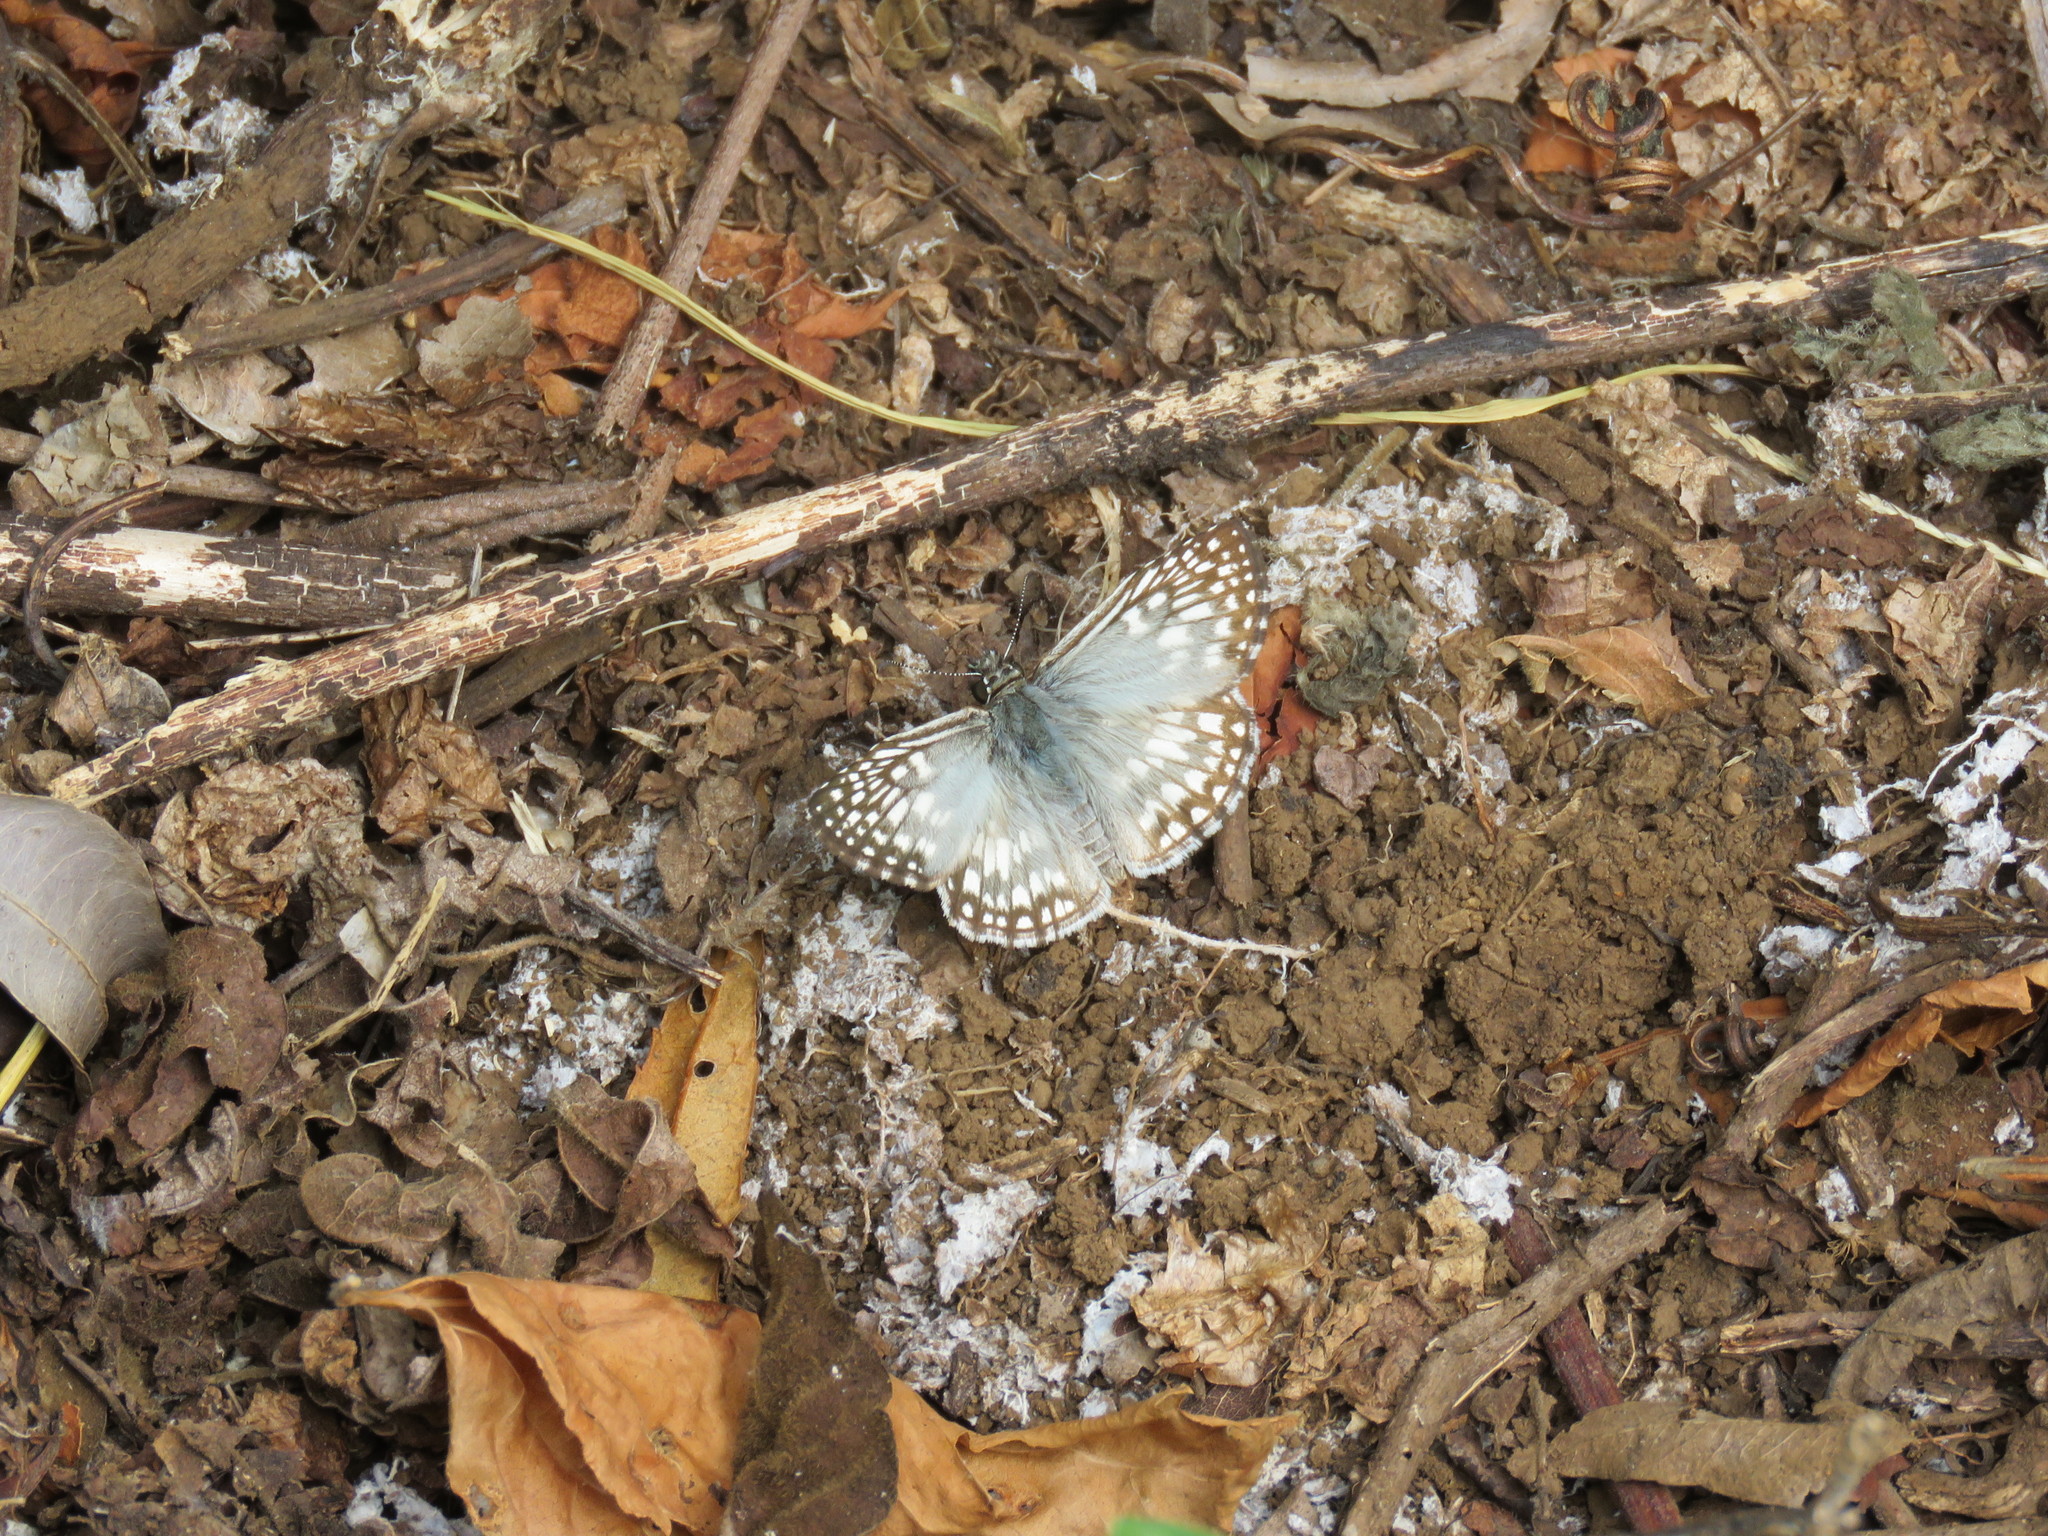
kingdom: Animalia
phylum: Arthropoda
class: Insecta
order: Lepidoptera
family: Hesperiidae
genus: Pyrgus
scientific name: Pyrgus oileus
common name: Tropical checkered-skipper
